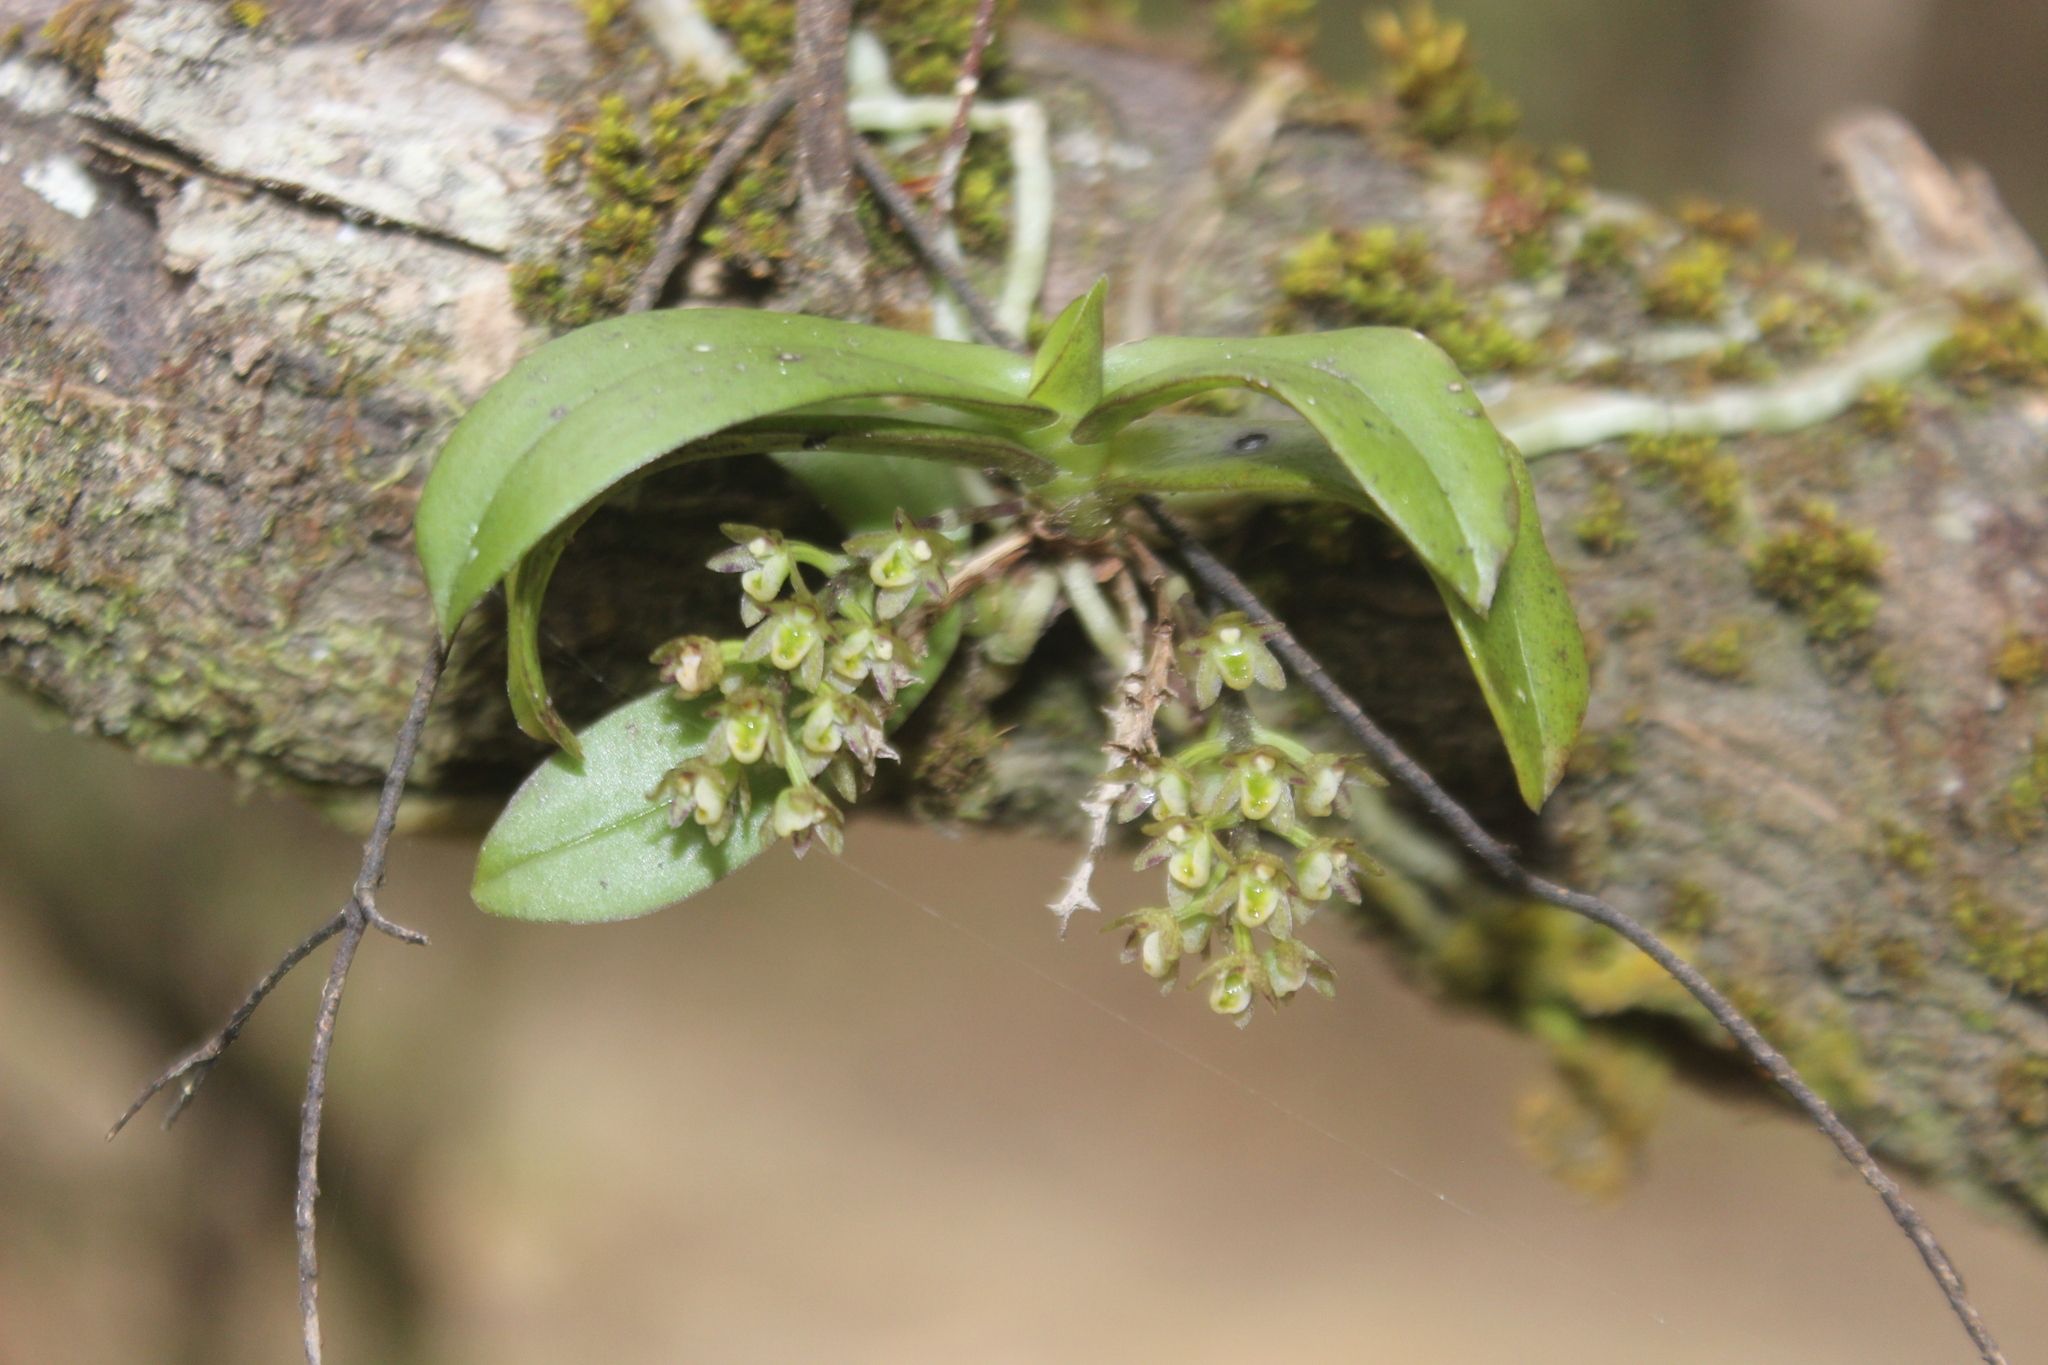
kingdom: Plantae
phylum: Tracheophyta
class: Liliopsida
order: Asparagales
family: Orchidaceae
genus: Drymoanthus
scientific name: Drymoanthus adversus
